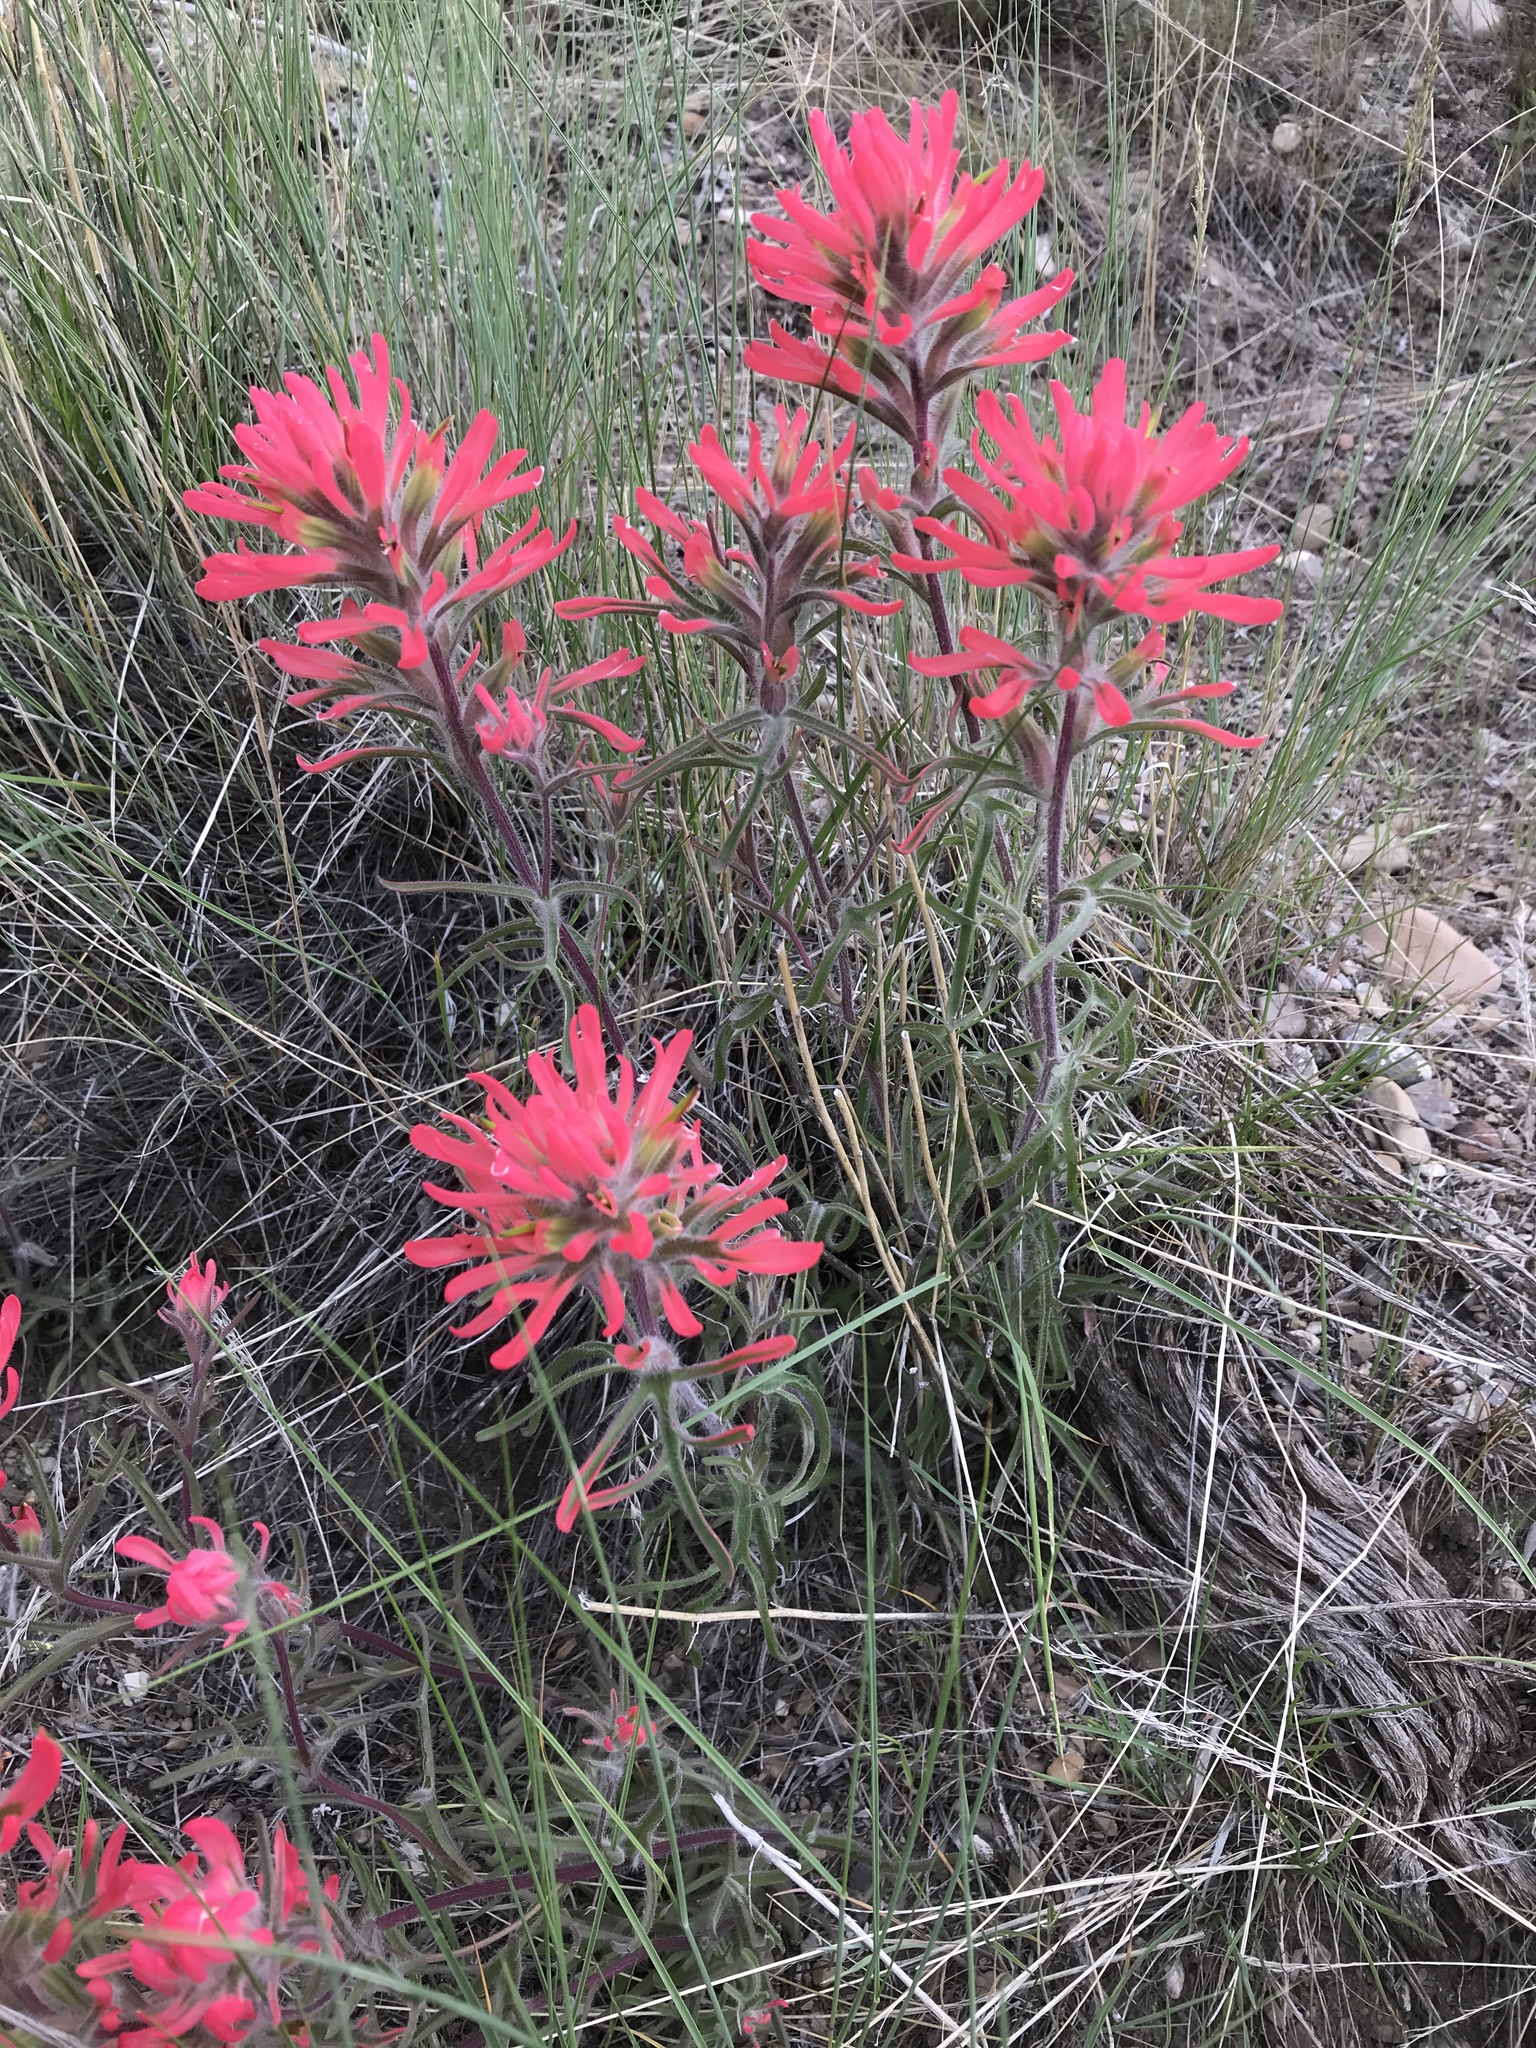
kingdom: Plantae
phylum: Tracheophyta
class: Magnoliopsida
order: Lamiales
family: Orobanchaceae
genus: Castilleja
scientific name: Castilleja chromosa
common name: Desert paintbrush
